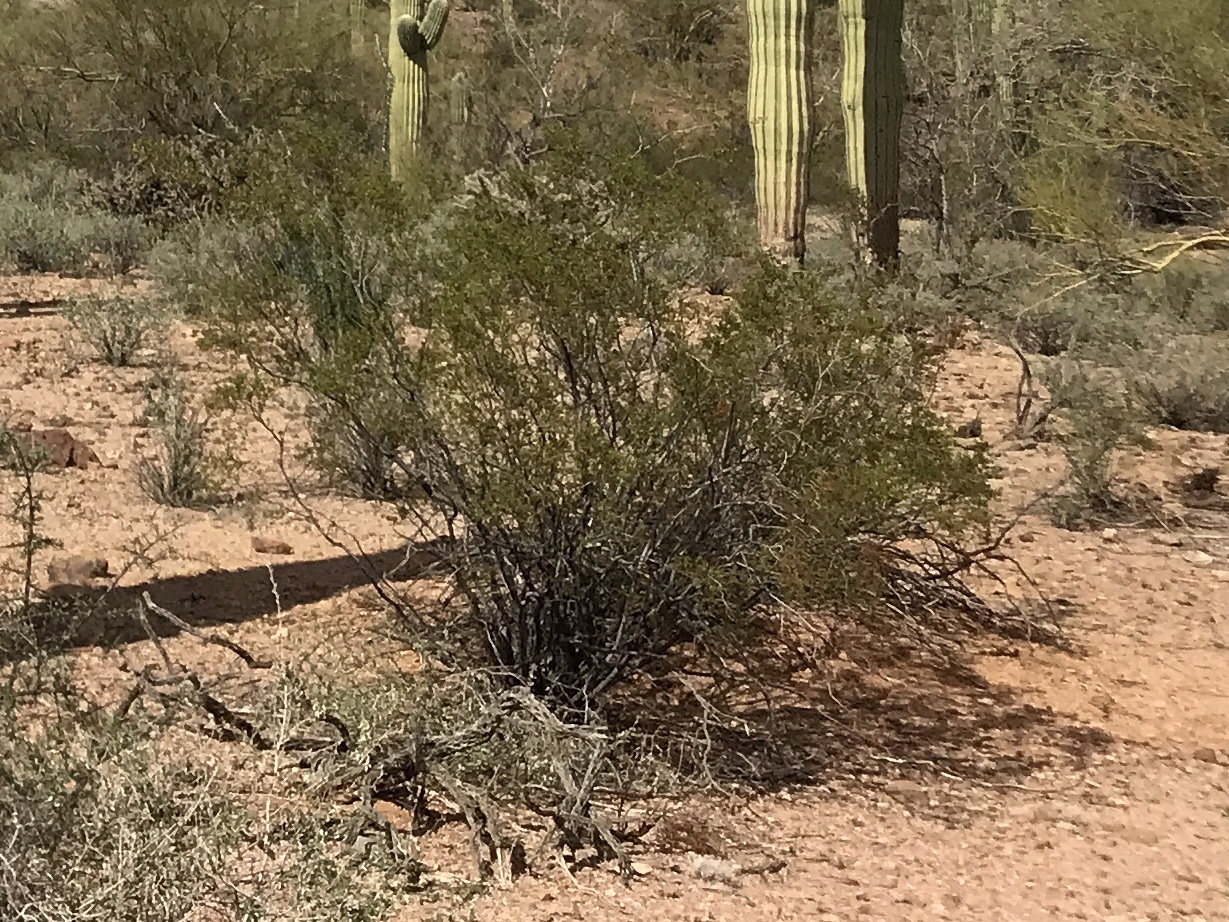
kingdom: Plantae
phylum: Tracheophyta
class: Magnoliopsida
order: Zygophyllales
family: Zygophyllaceae
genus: Larrea
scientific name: Larrea tridentata
